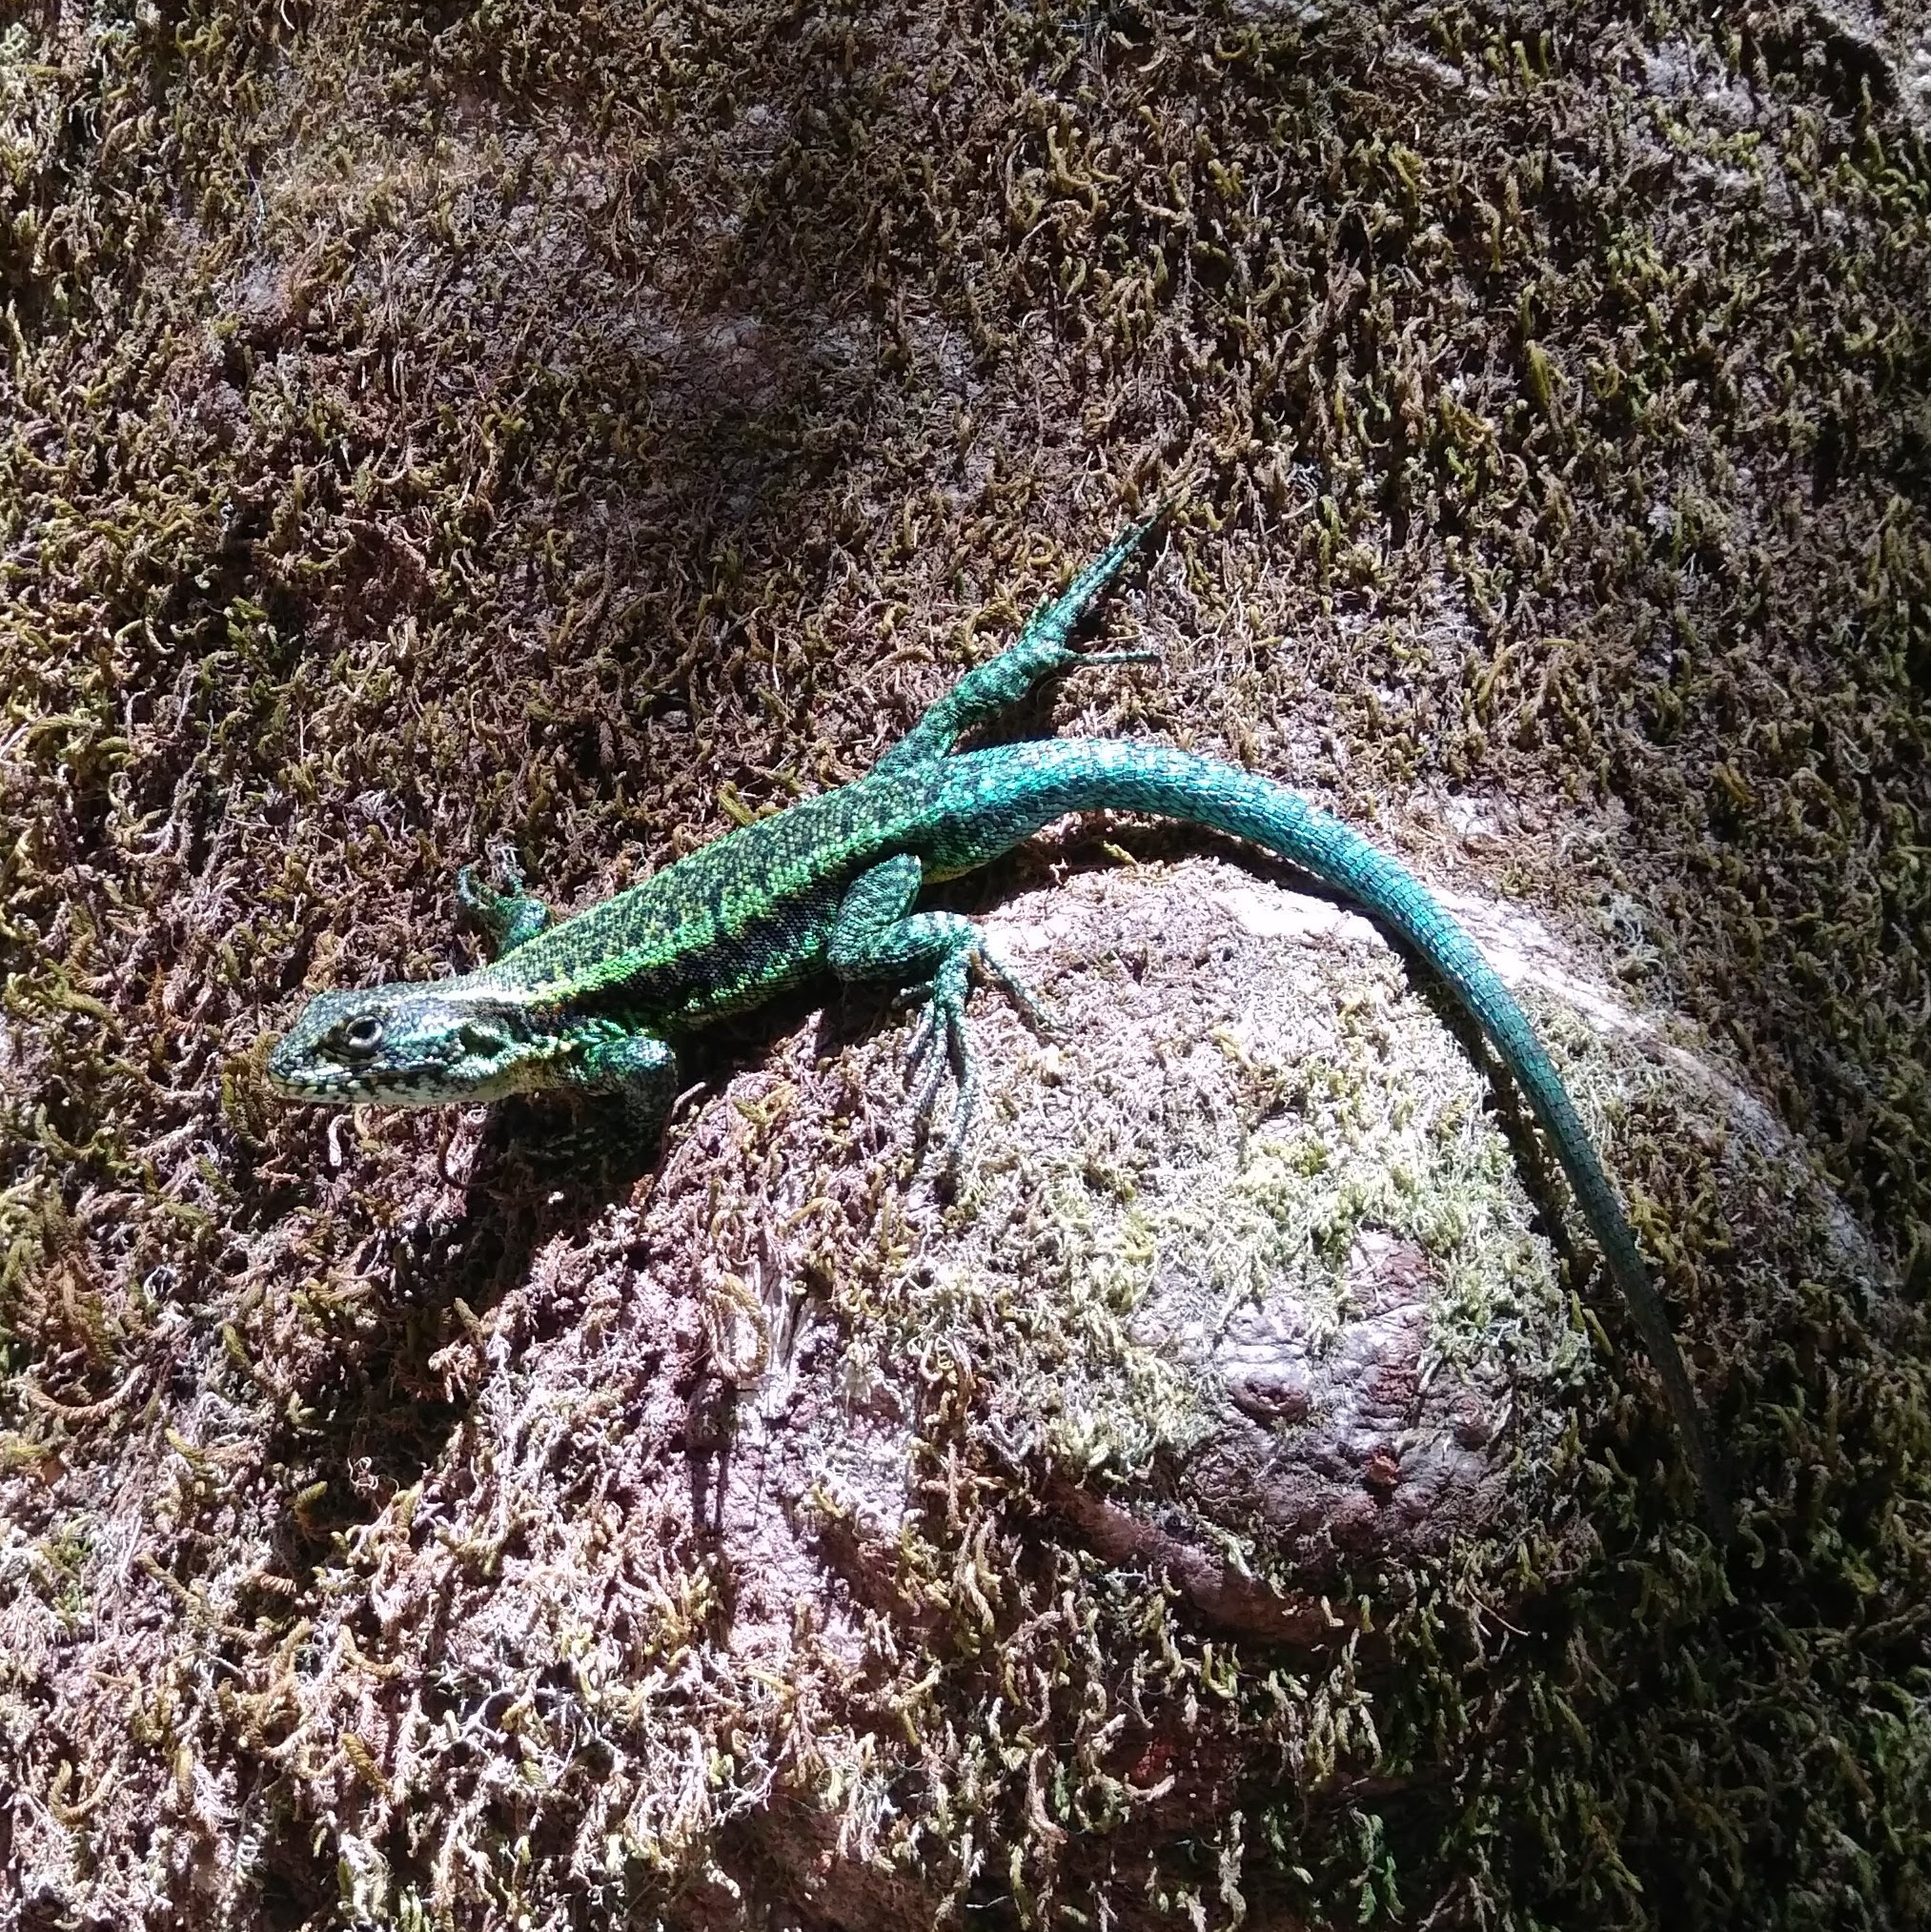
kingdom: Animalia
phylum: Chordata
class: Squamata
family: Liolaemidae
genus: Liolaemus
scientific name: Liolaemus pictus
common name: Painted tree iguana
